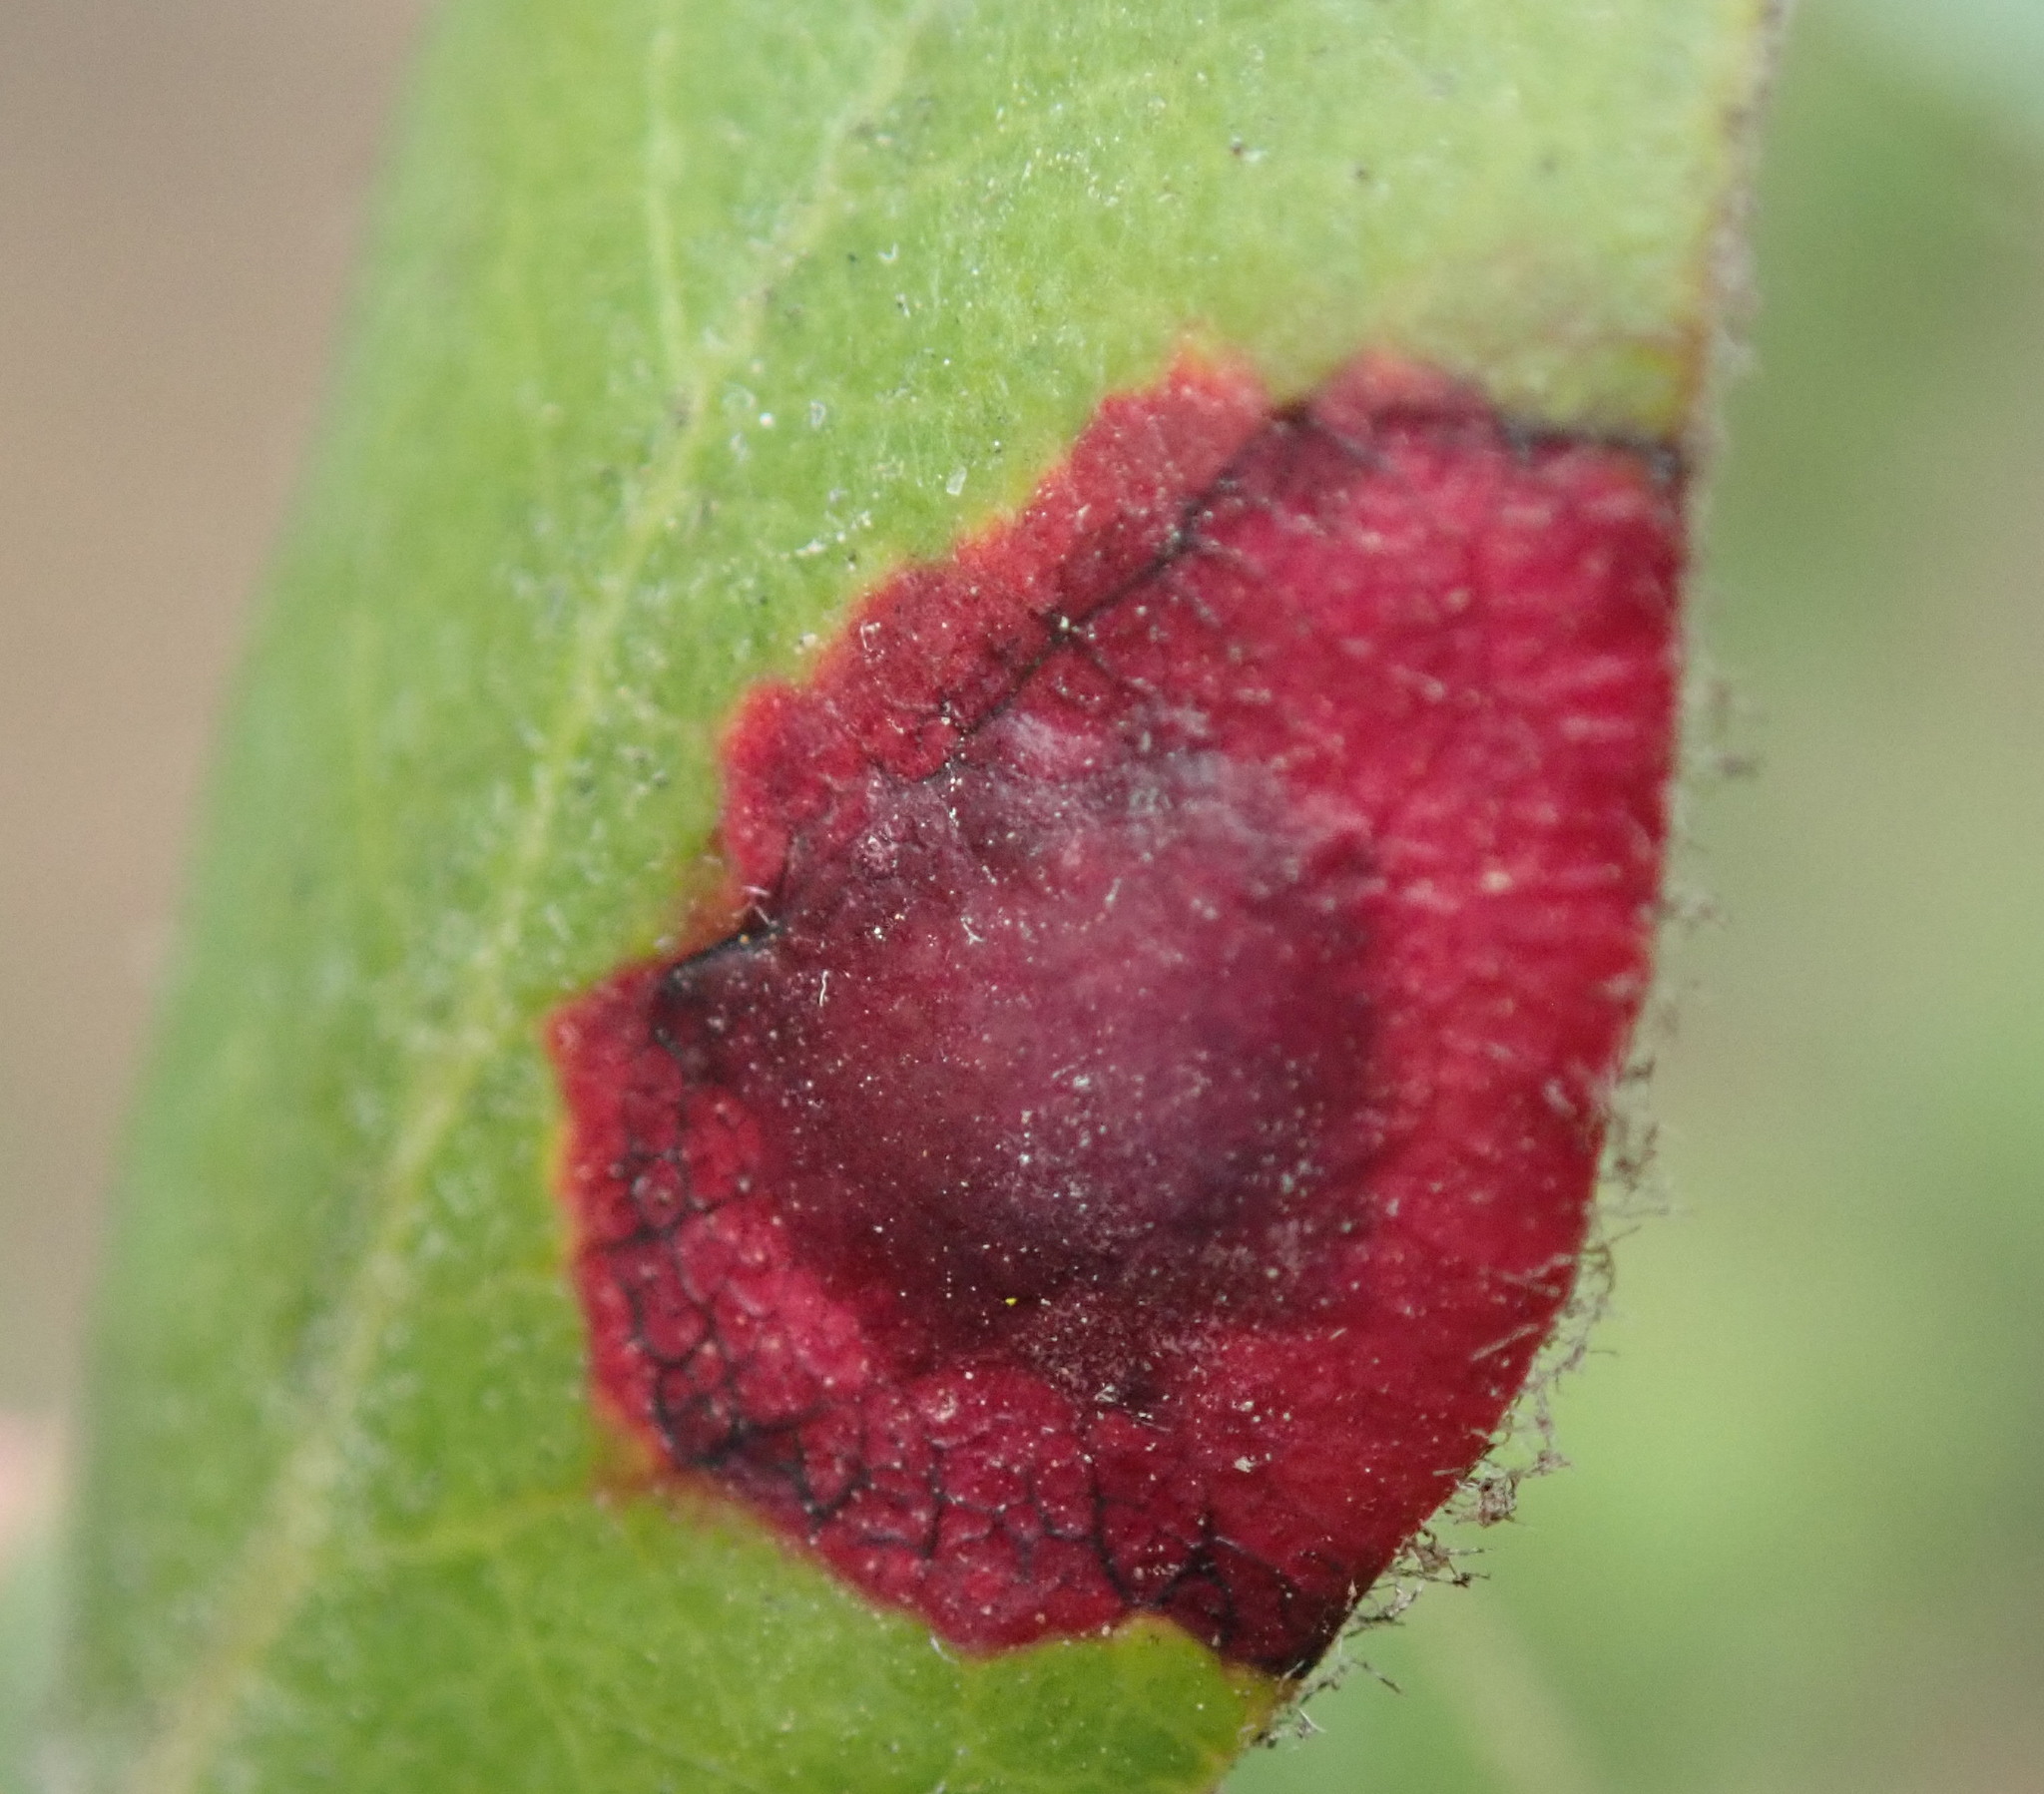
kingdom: Fungi
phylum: Basidiomycota
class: Exobasidiomycetes
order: Exobasidiales
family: Exobasidiaceae
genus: Exobasidium
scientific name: Exobasidium arctostaphyli
